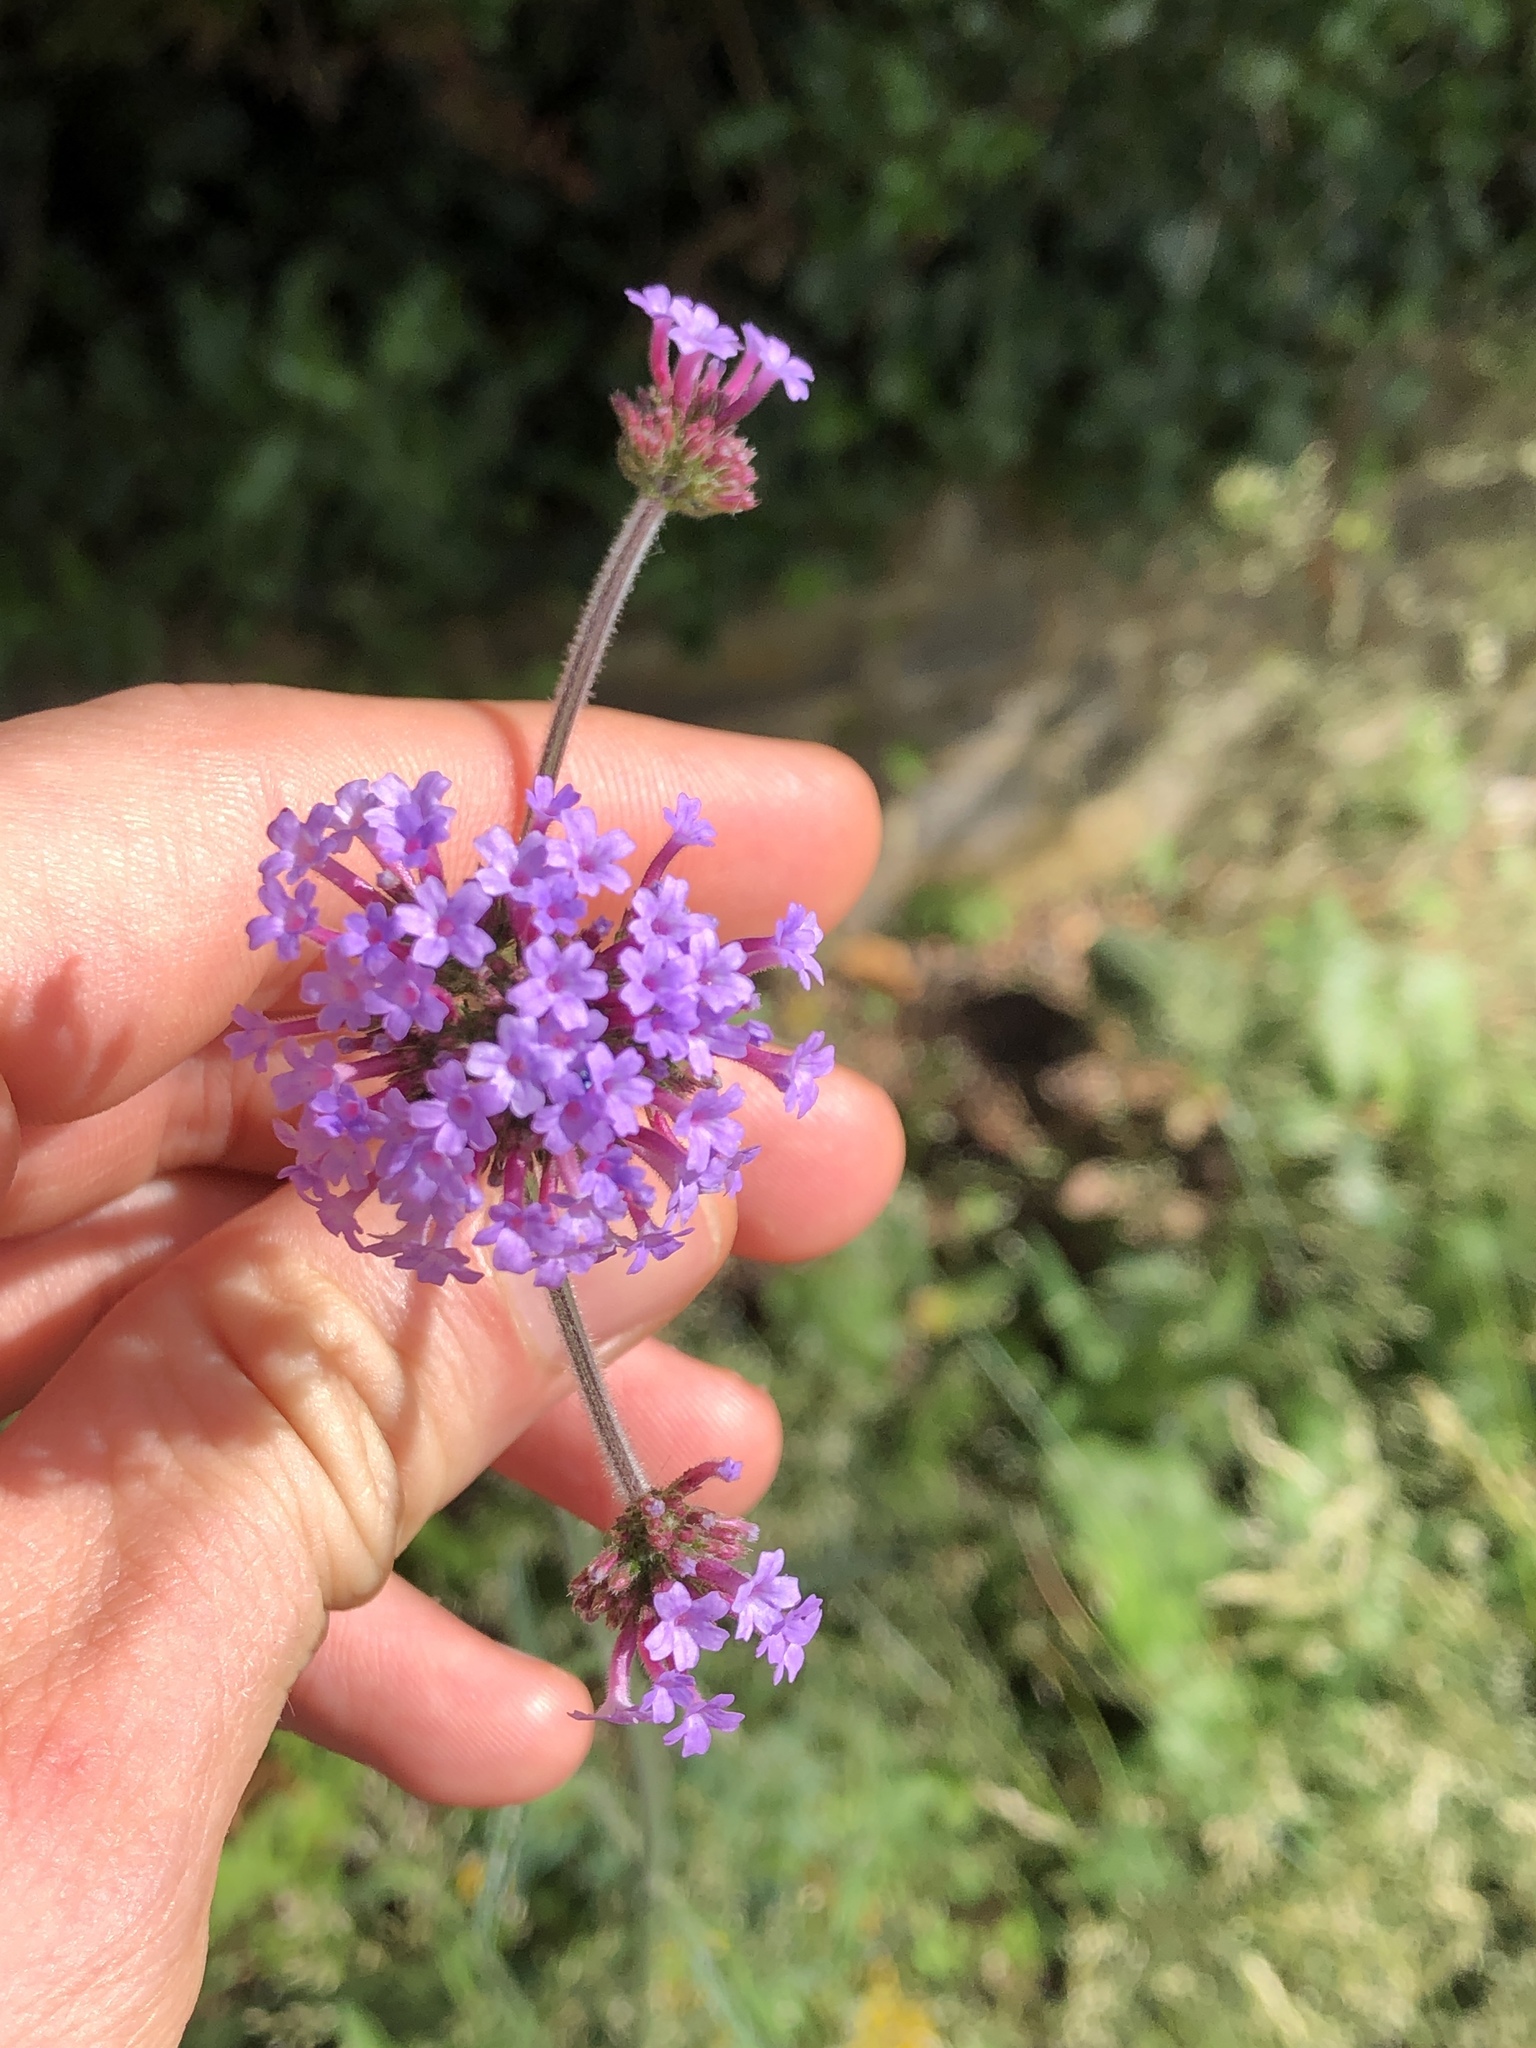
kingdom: Plantae
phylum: Tracheophyta
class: Magnoliopsida
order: Lamiales
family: Verbenaceae
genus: Verbena
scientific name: Verbena bonariensis
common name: Purpletop vervain
